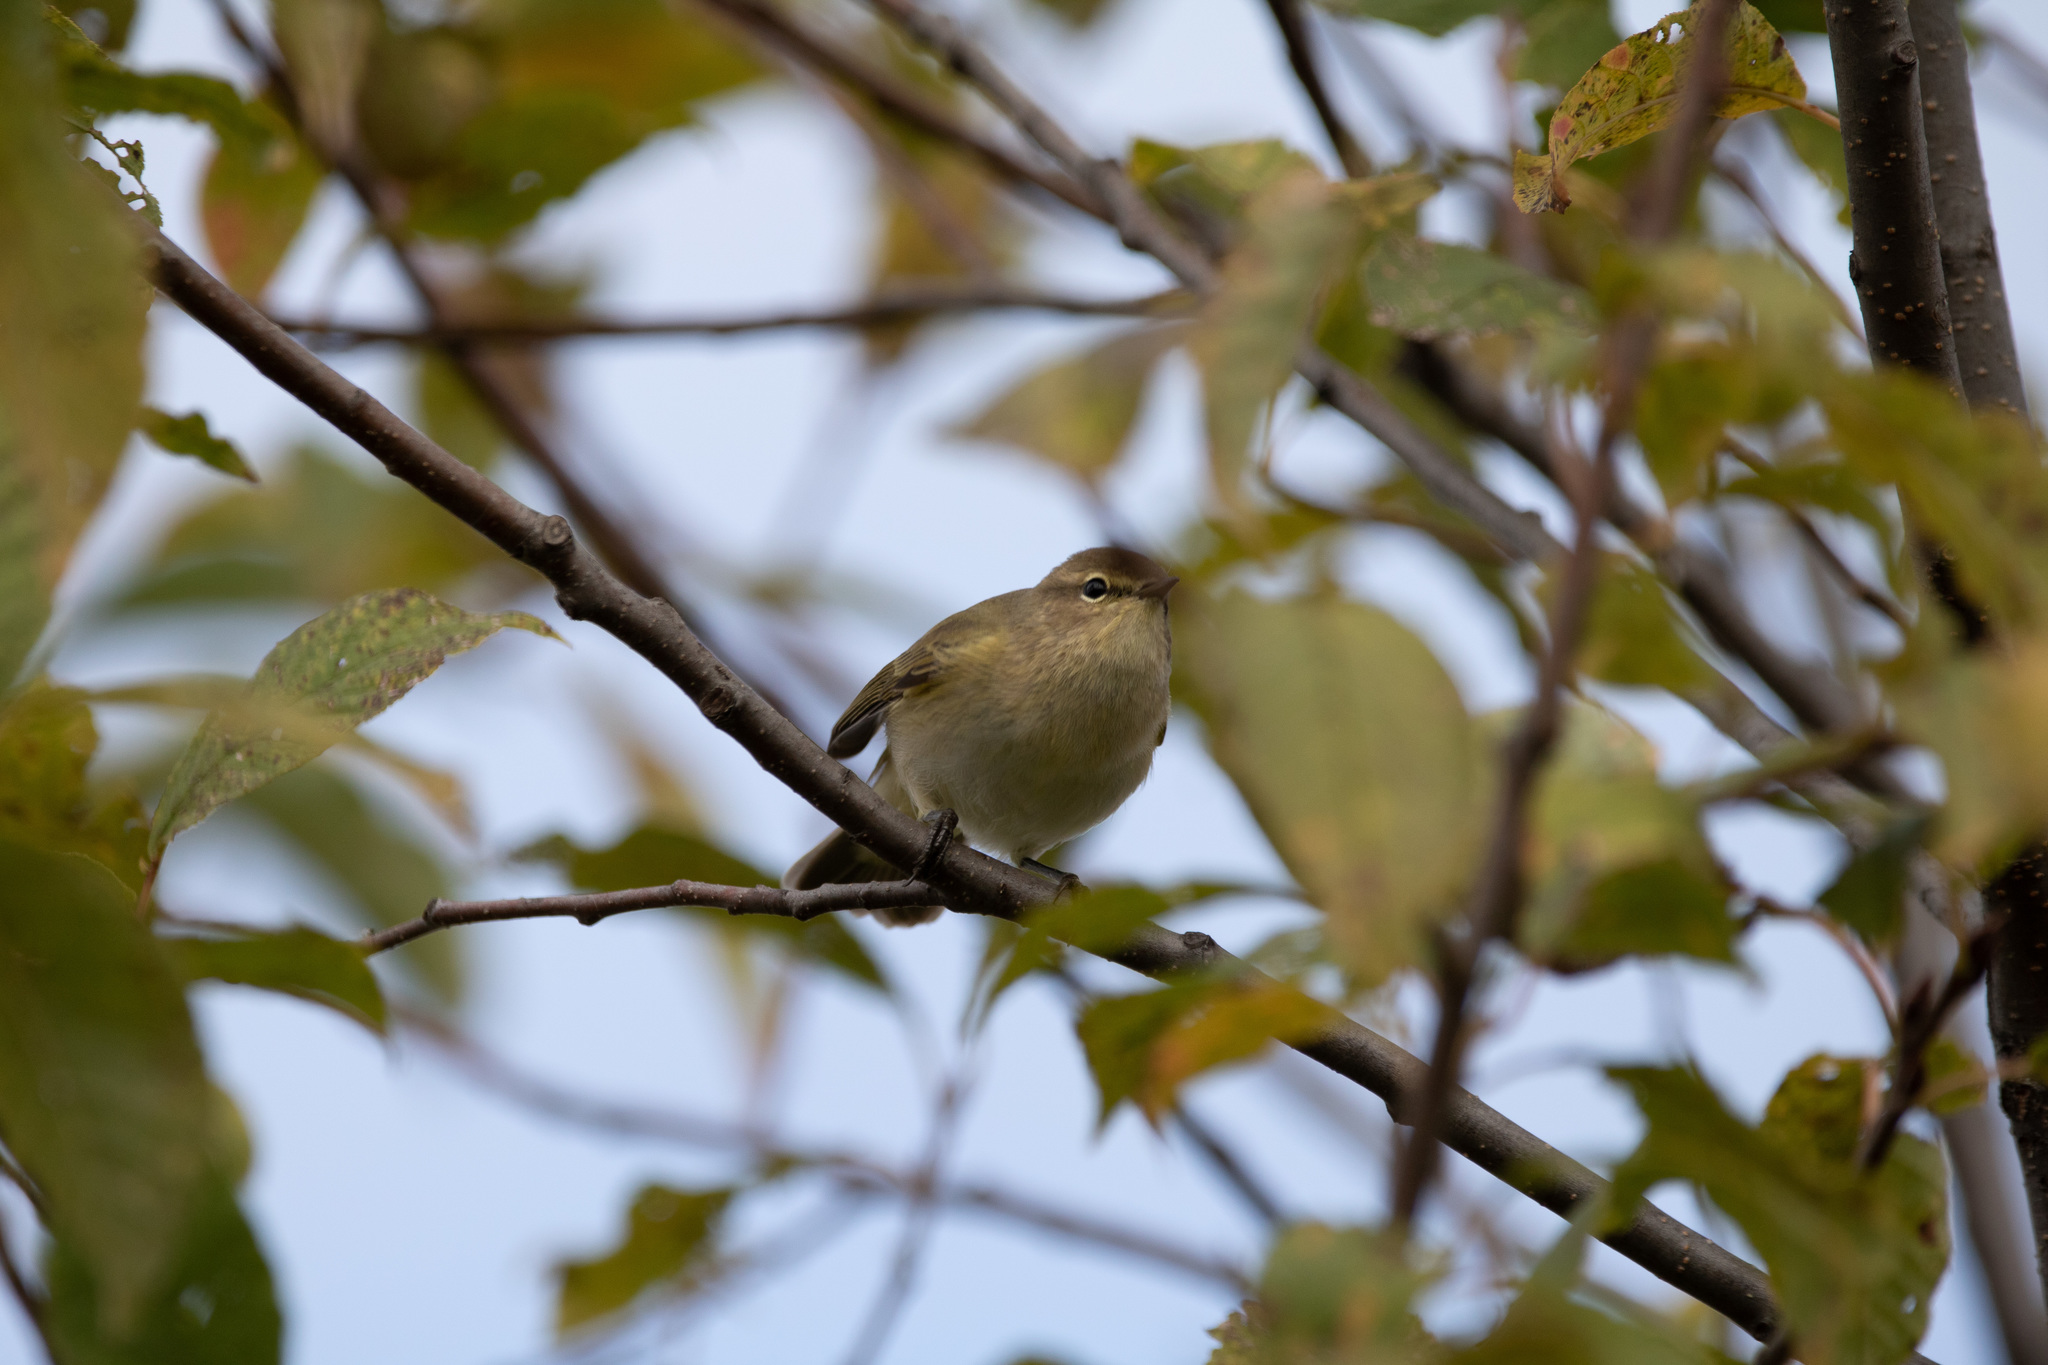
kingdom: Animalia
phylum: Chordata
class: Aves
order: Passeriformes
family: Phylloscopidae
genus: Phylloscopus
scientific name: Phylloscopus collybita
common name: Common chiffchaff
